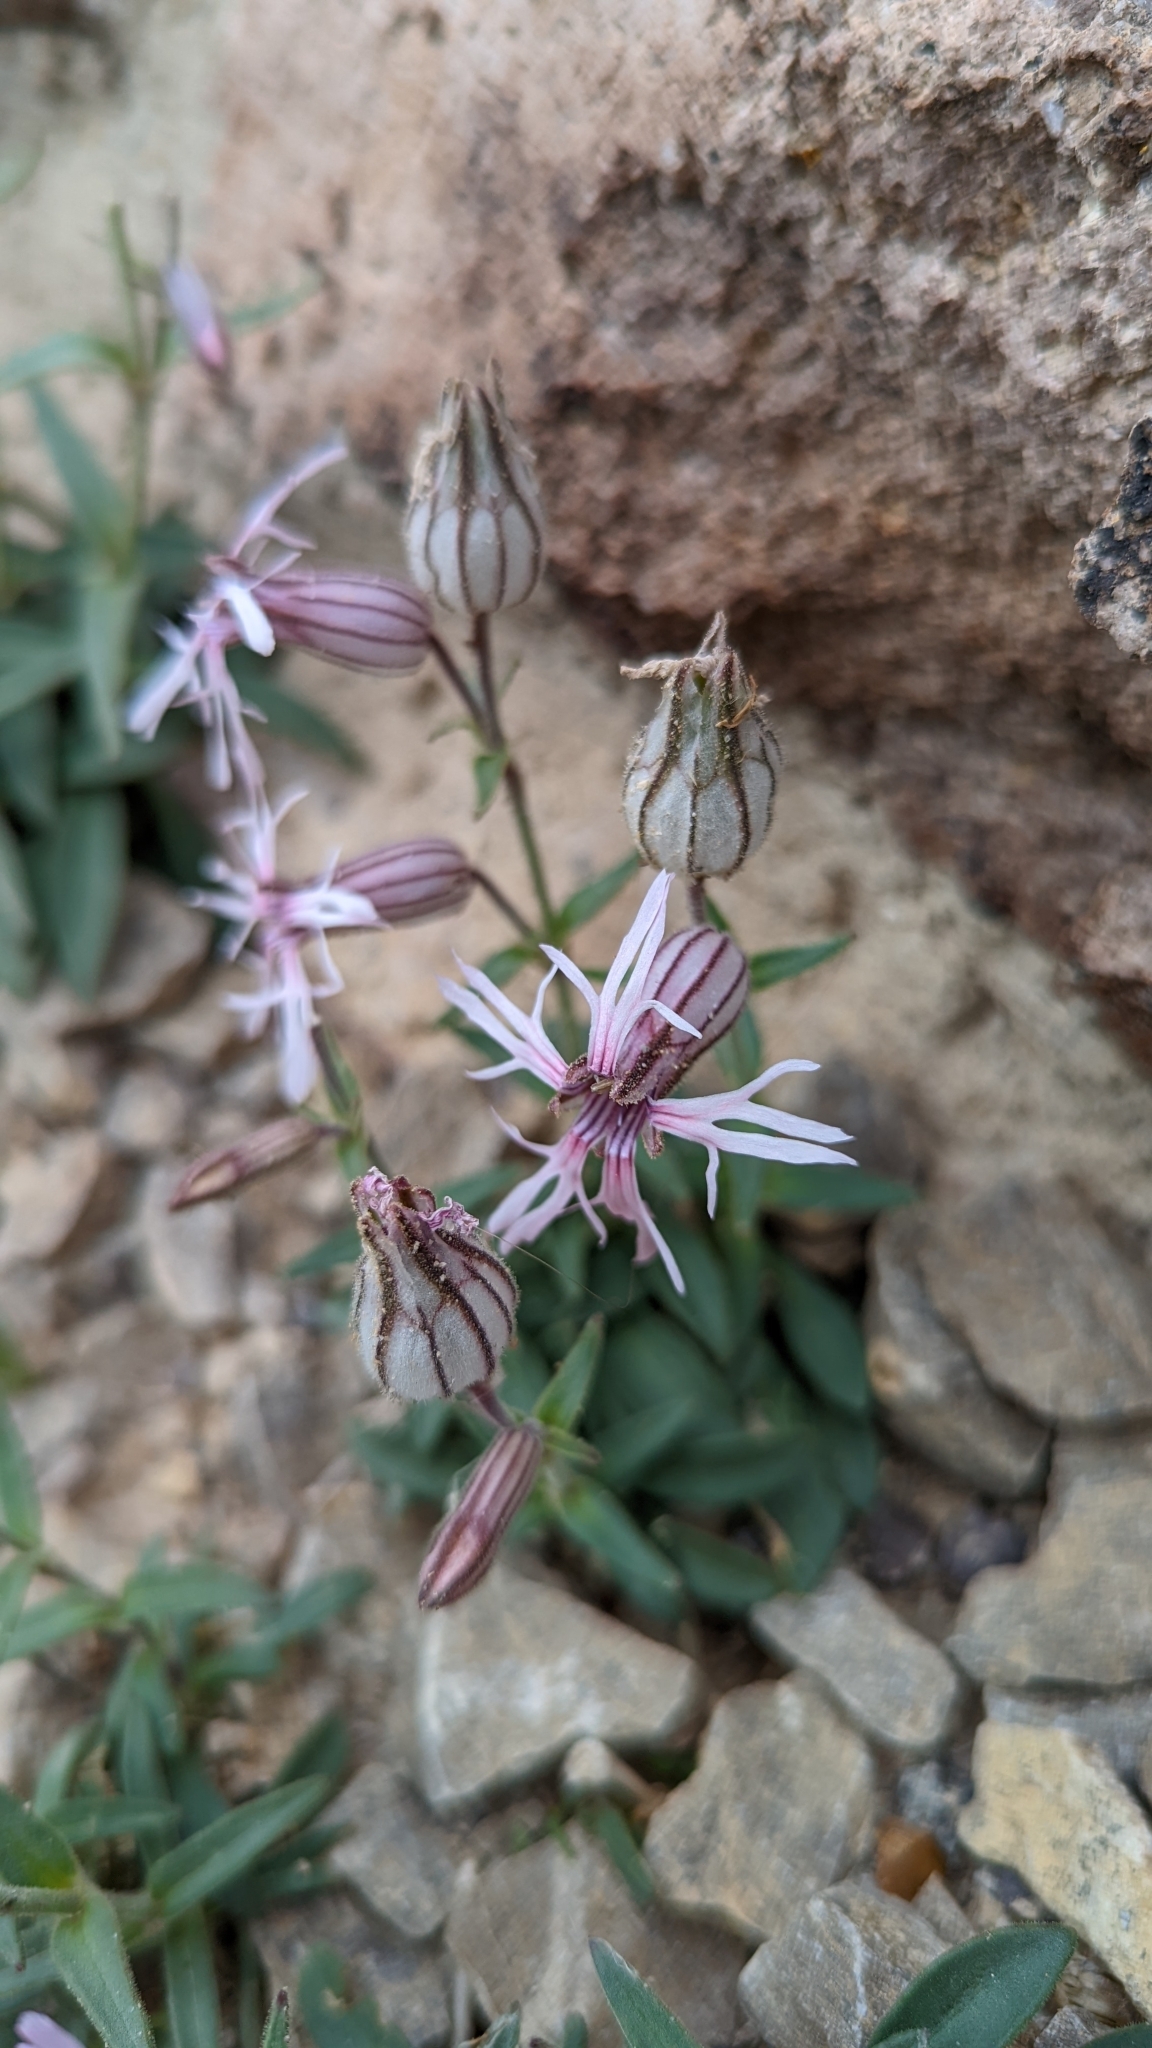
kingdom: Plantae
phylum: Tracheophyta
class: Magnoliopsida
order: Caryophyllales
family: Caryophyllaceae
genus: Silene
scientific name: Silene petersonii
